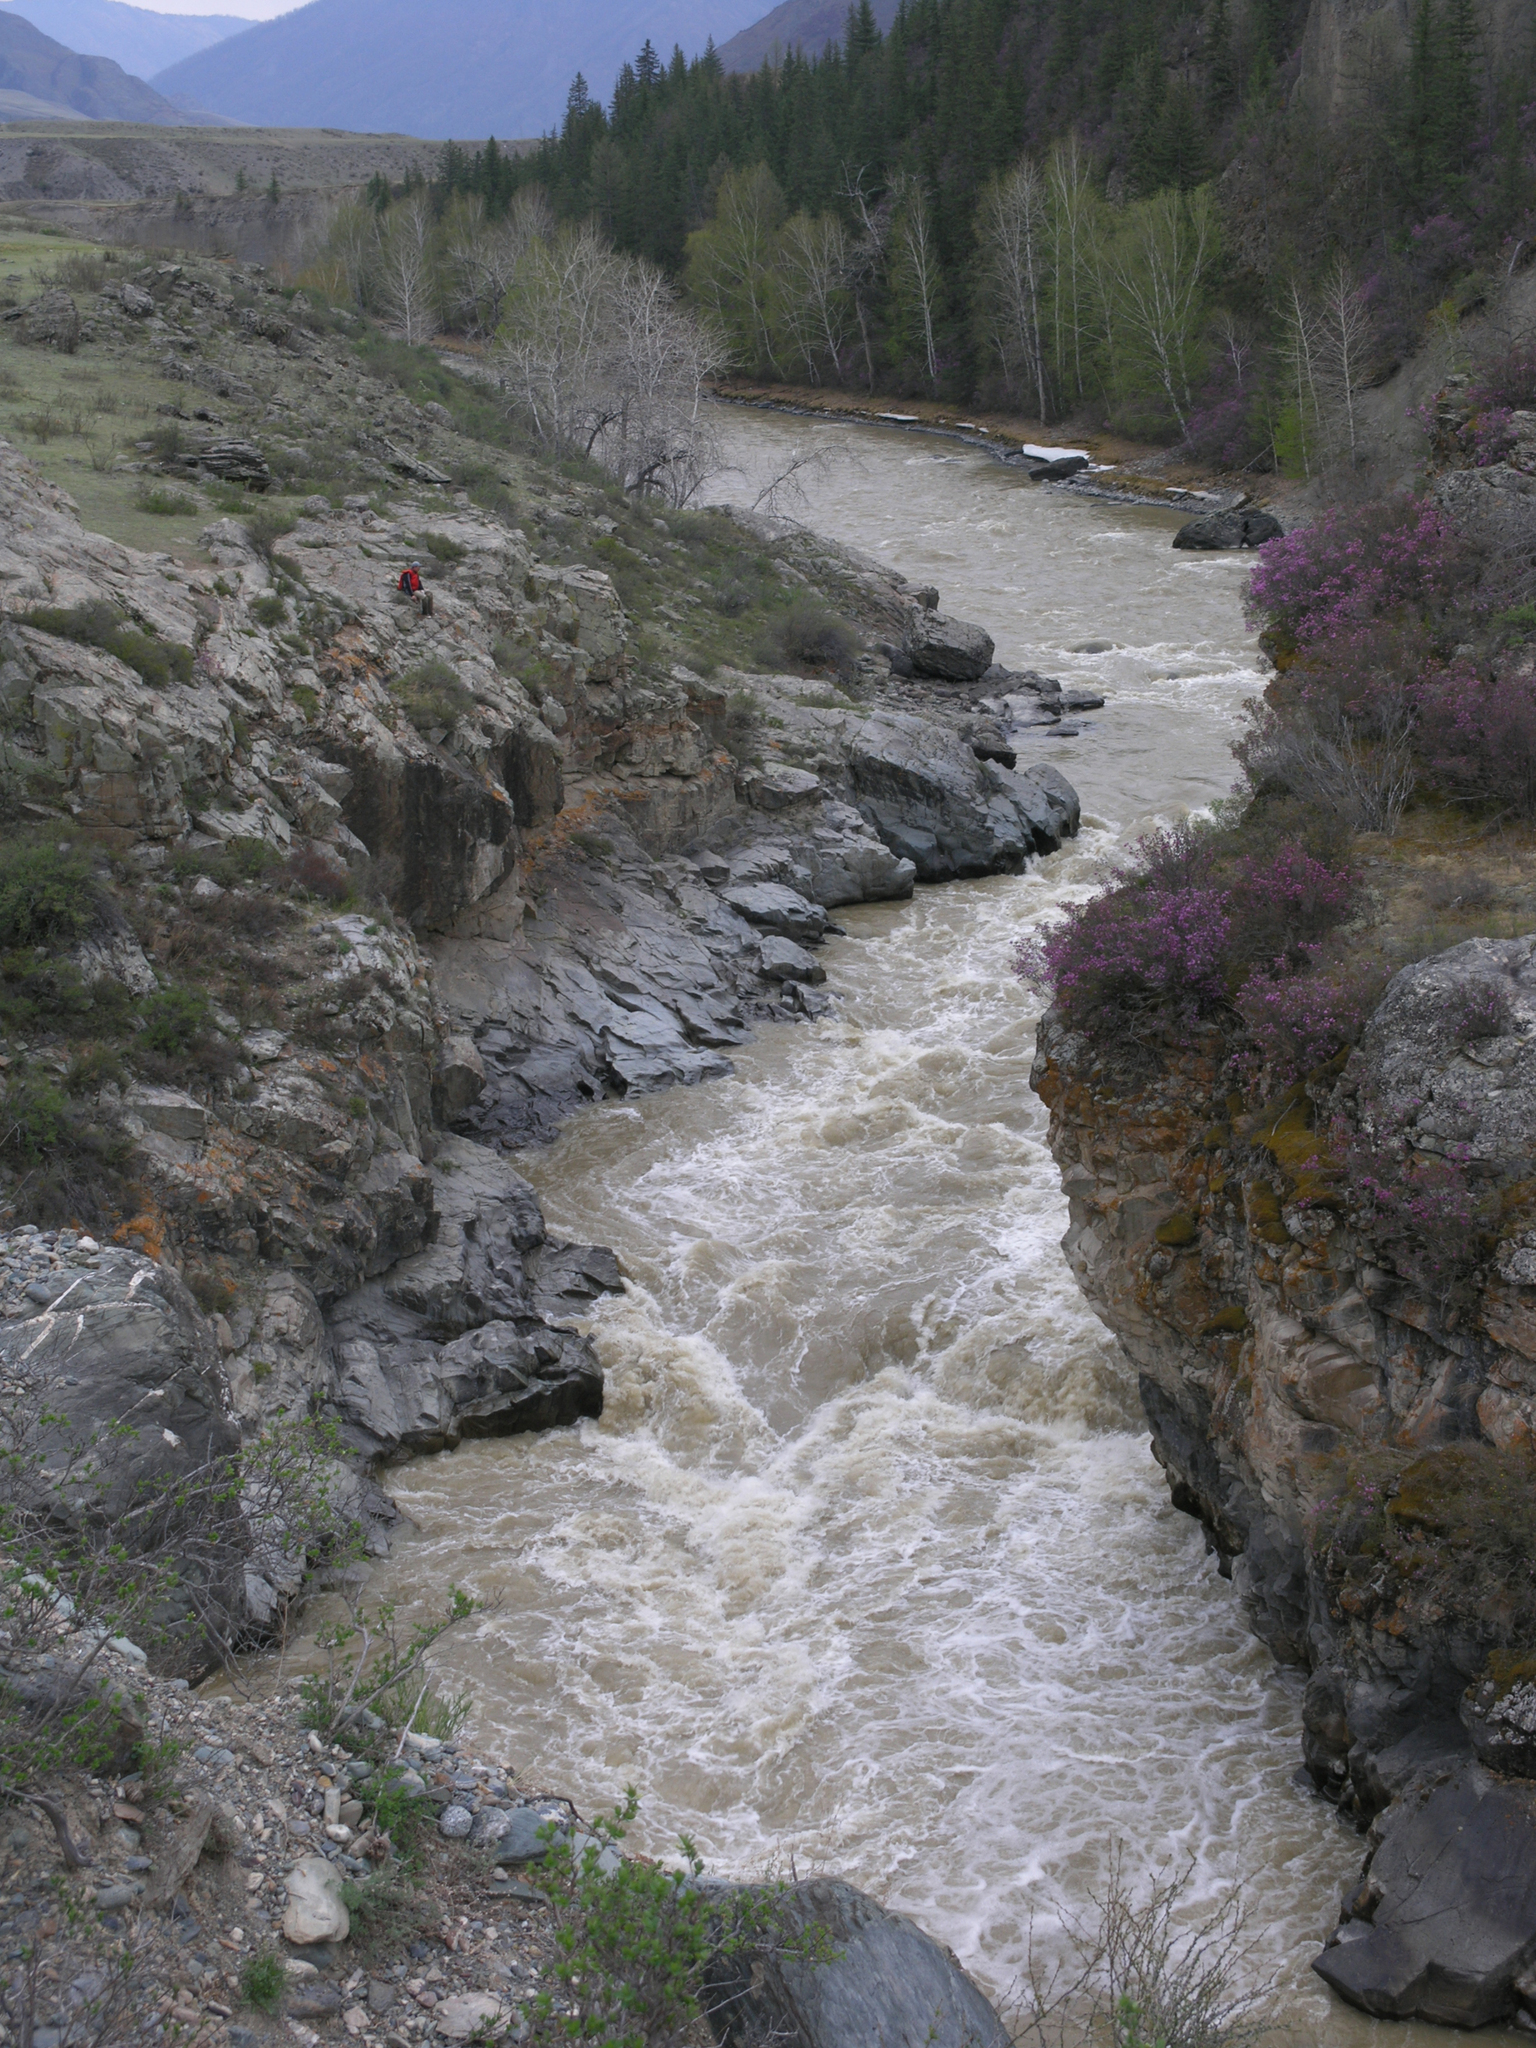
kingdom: Plantae
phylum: Tracheophyta
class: Magnoliopsida
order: Ericales
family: Ericaceae
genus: Rhododendron
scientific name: Rhododendron dauricum
